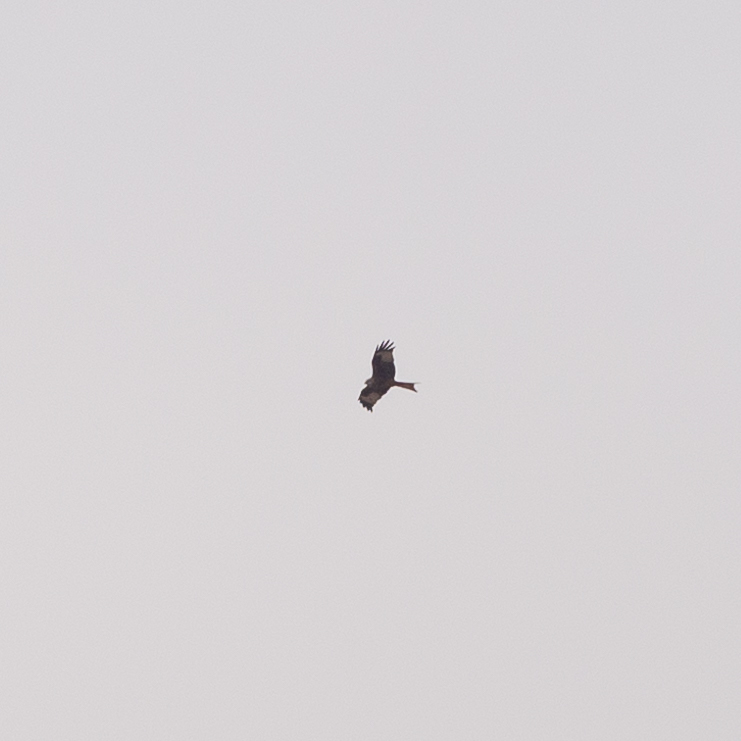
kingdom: Animalia
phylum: Chordata
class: Aves
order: Accipitriformes
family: Accipitridae
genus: Milvus
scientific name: Milvus milvus
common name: Red kite
